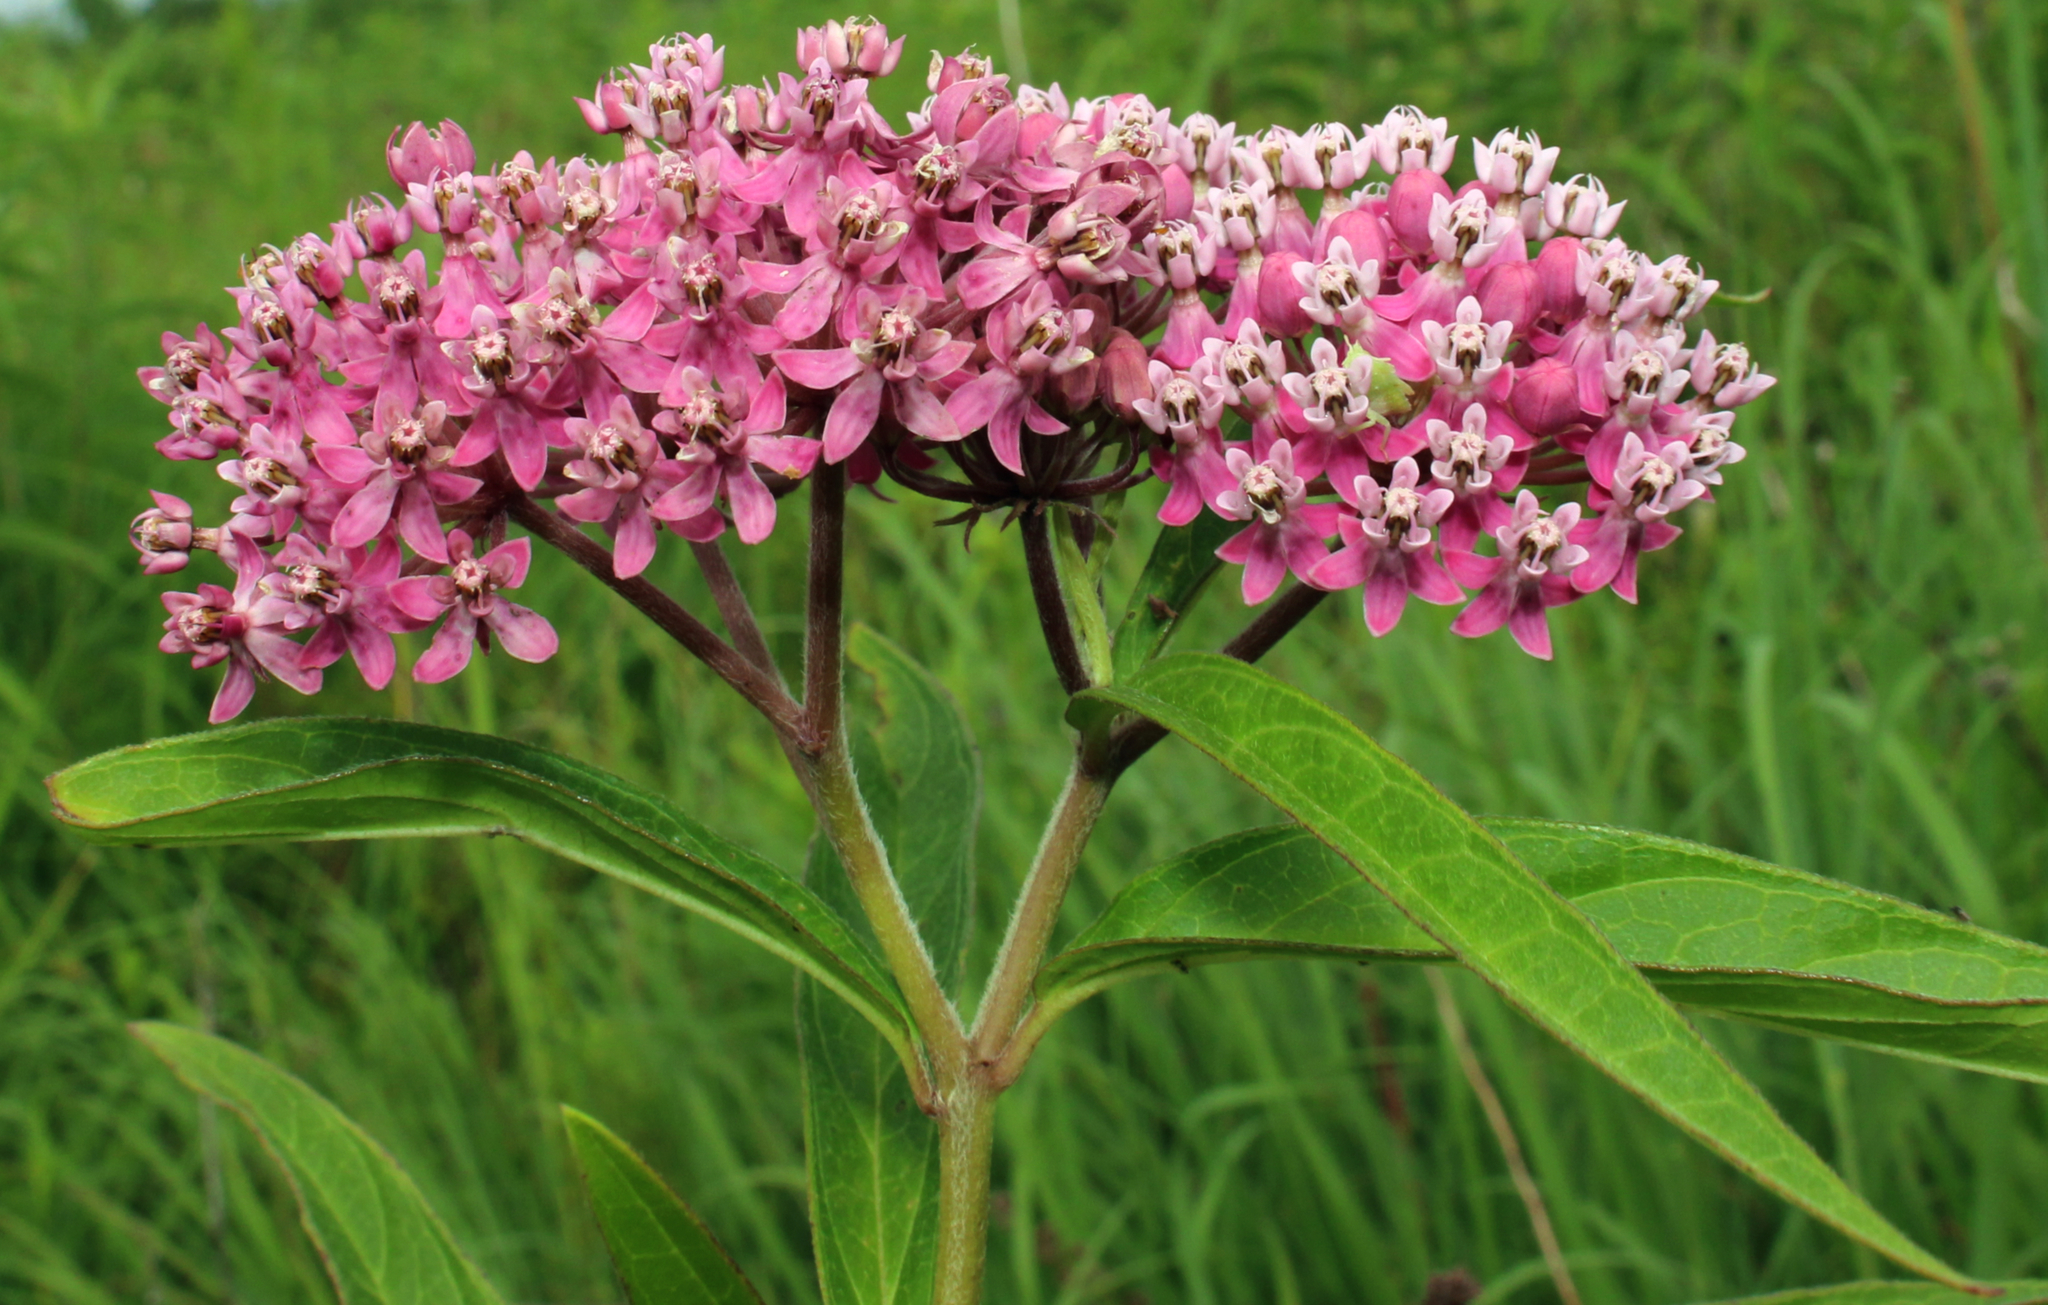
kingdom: Plantae
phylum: Tracheophyta
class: Magnoliopsida
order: Gentianales
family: Apocynaceae
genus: Asclepias
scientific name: Asclepias incarnata
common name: Swamp milkweed
